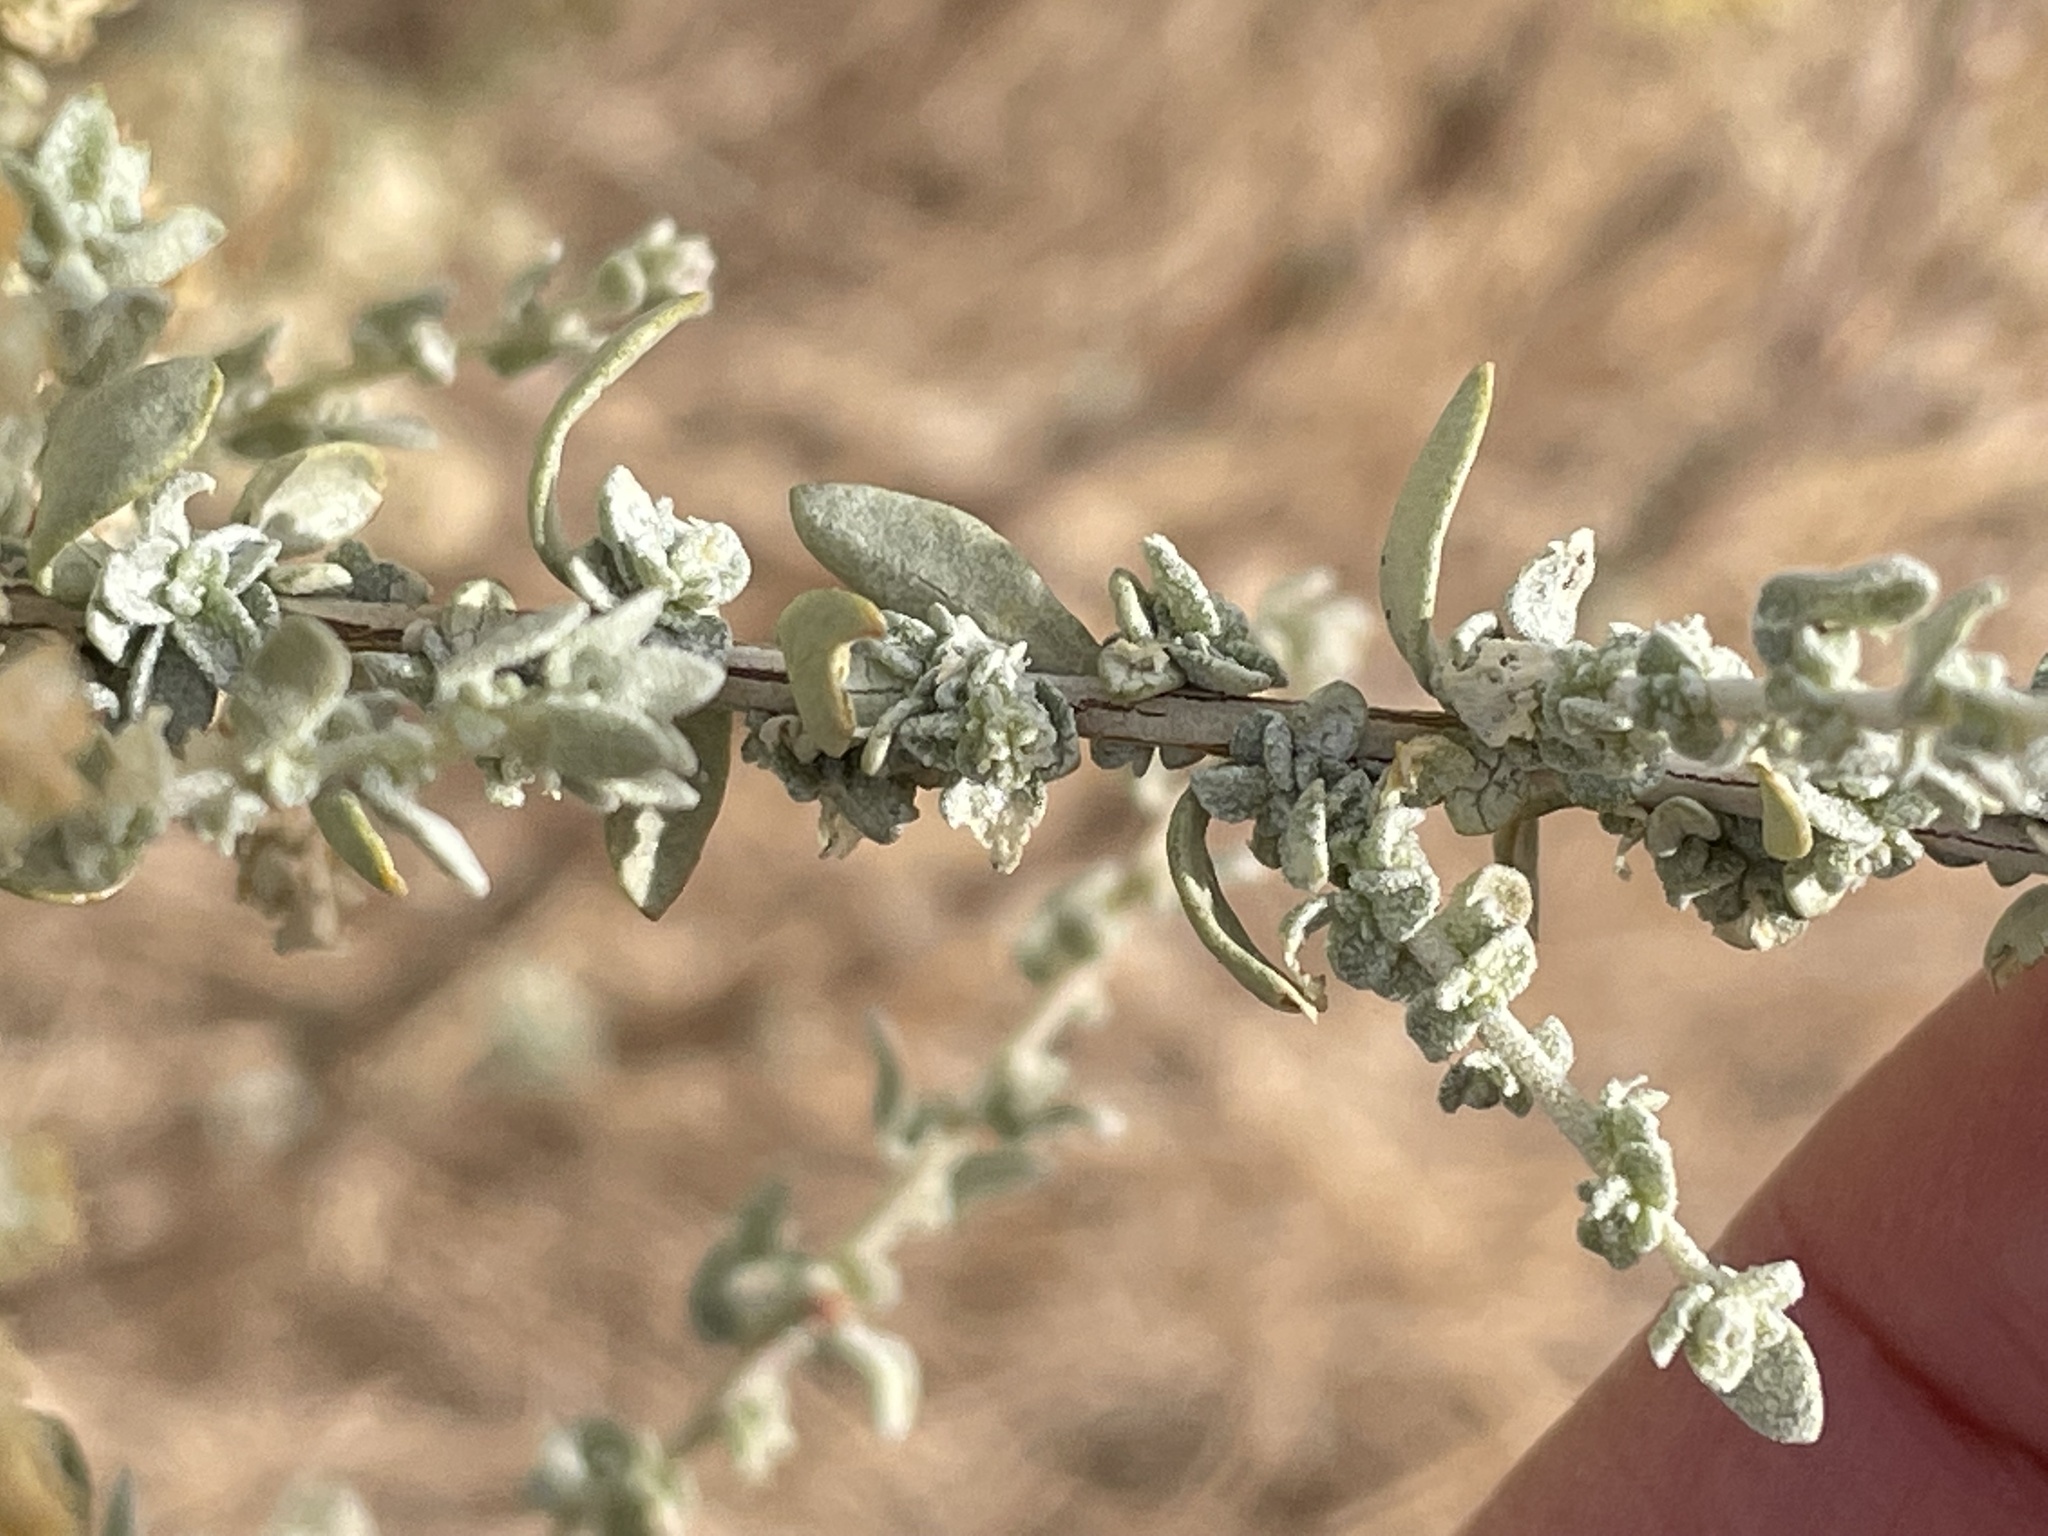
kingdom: Plantae
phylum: Tracheophyta
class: Magnoliopsida
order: Caryophyllales
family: Amaranthaceae
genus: Atriplex
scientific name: Atriplex polycarpa
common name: Desert saltbush
